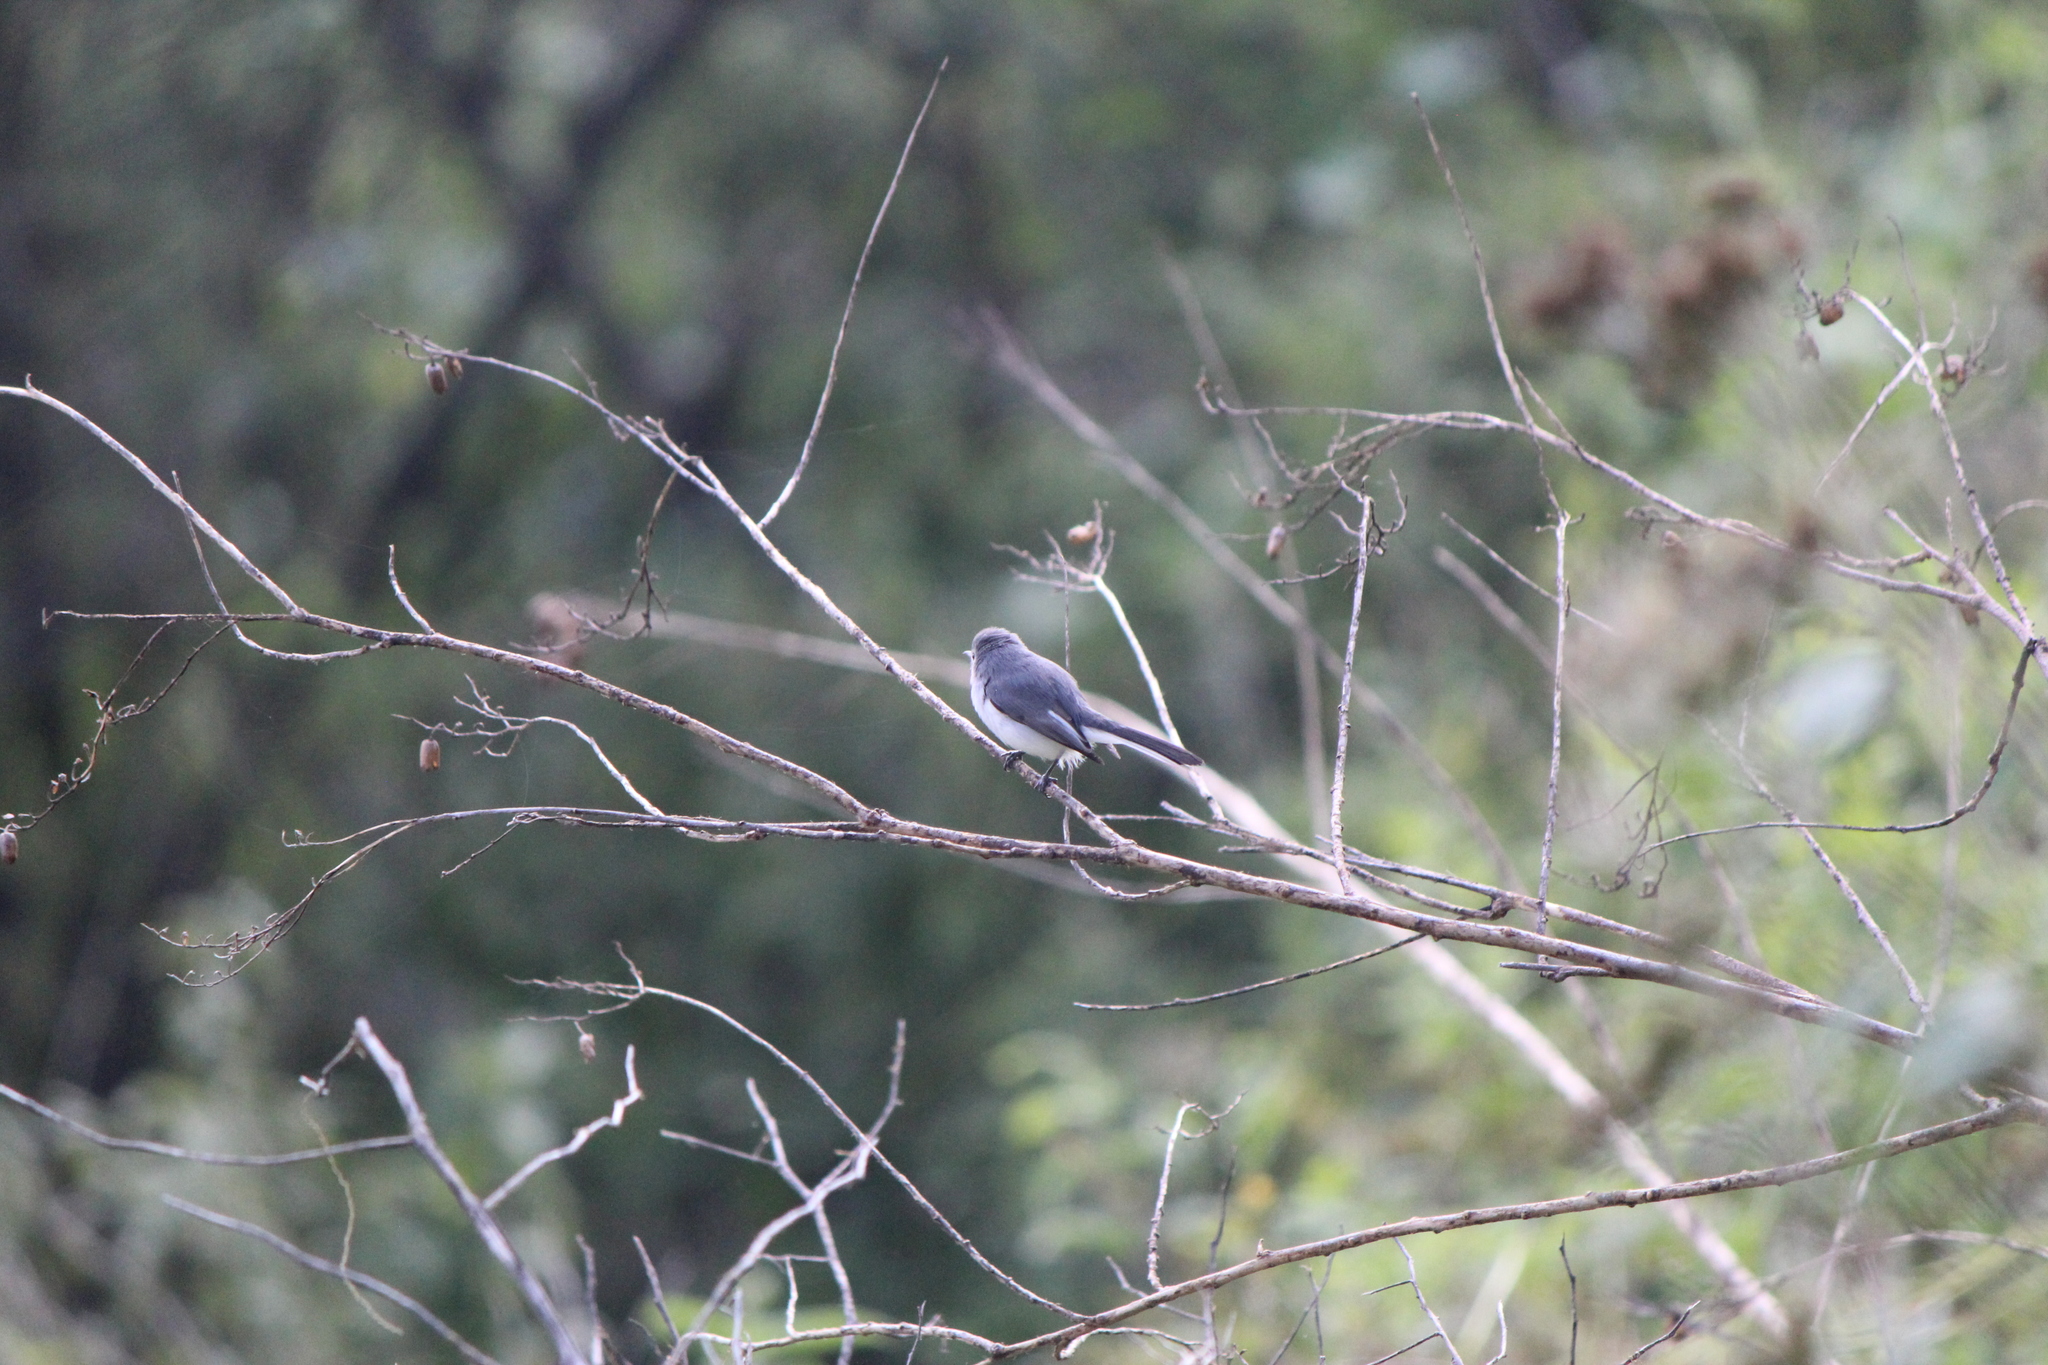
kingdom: Animalia
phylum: Chordata
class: Aves
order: Passeriformes
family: Polioptilidae
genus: Polioptila
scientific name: Polioptila caerulea
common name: Blue-gray gnatcatcher
